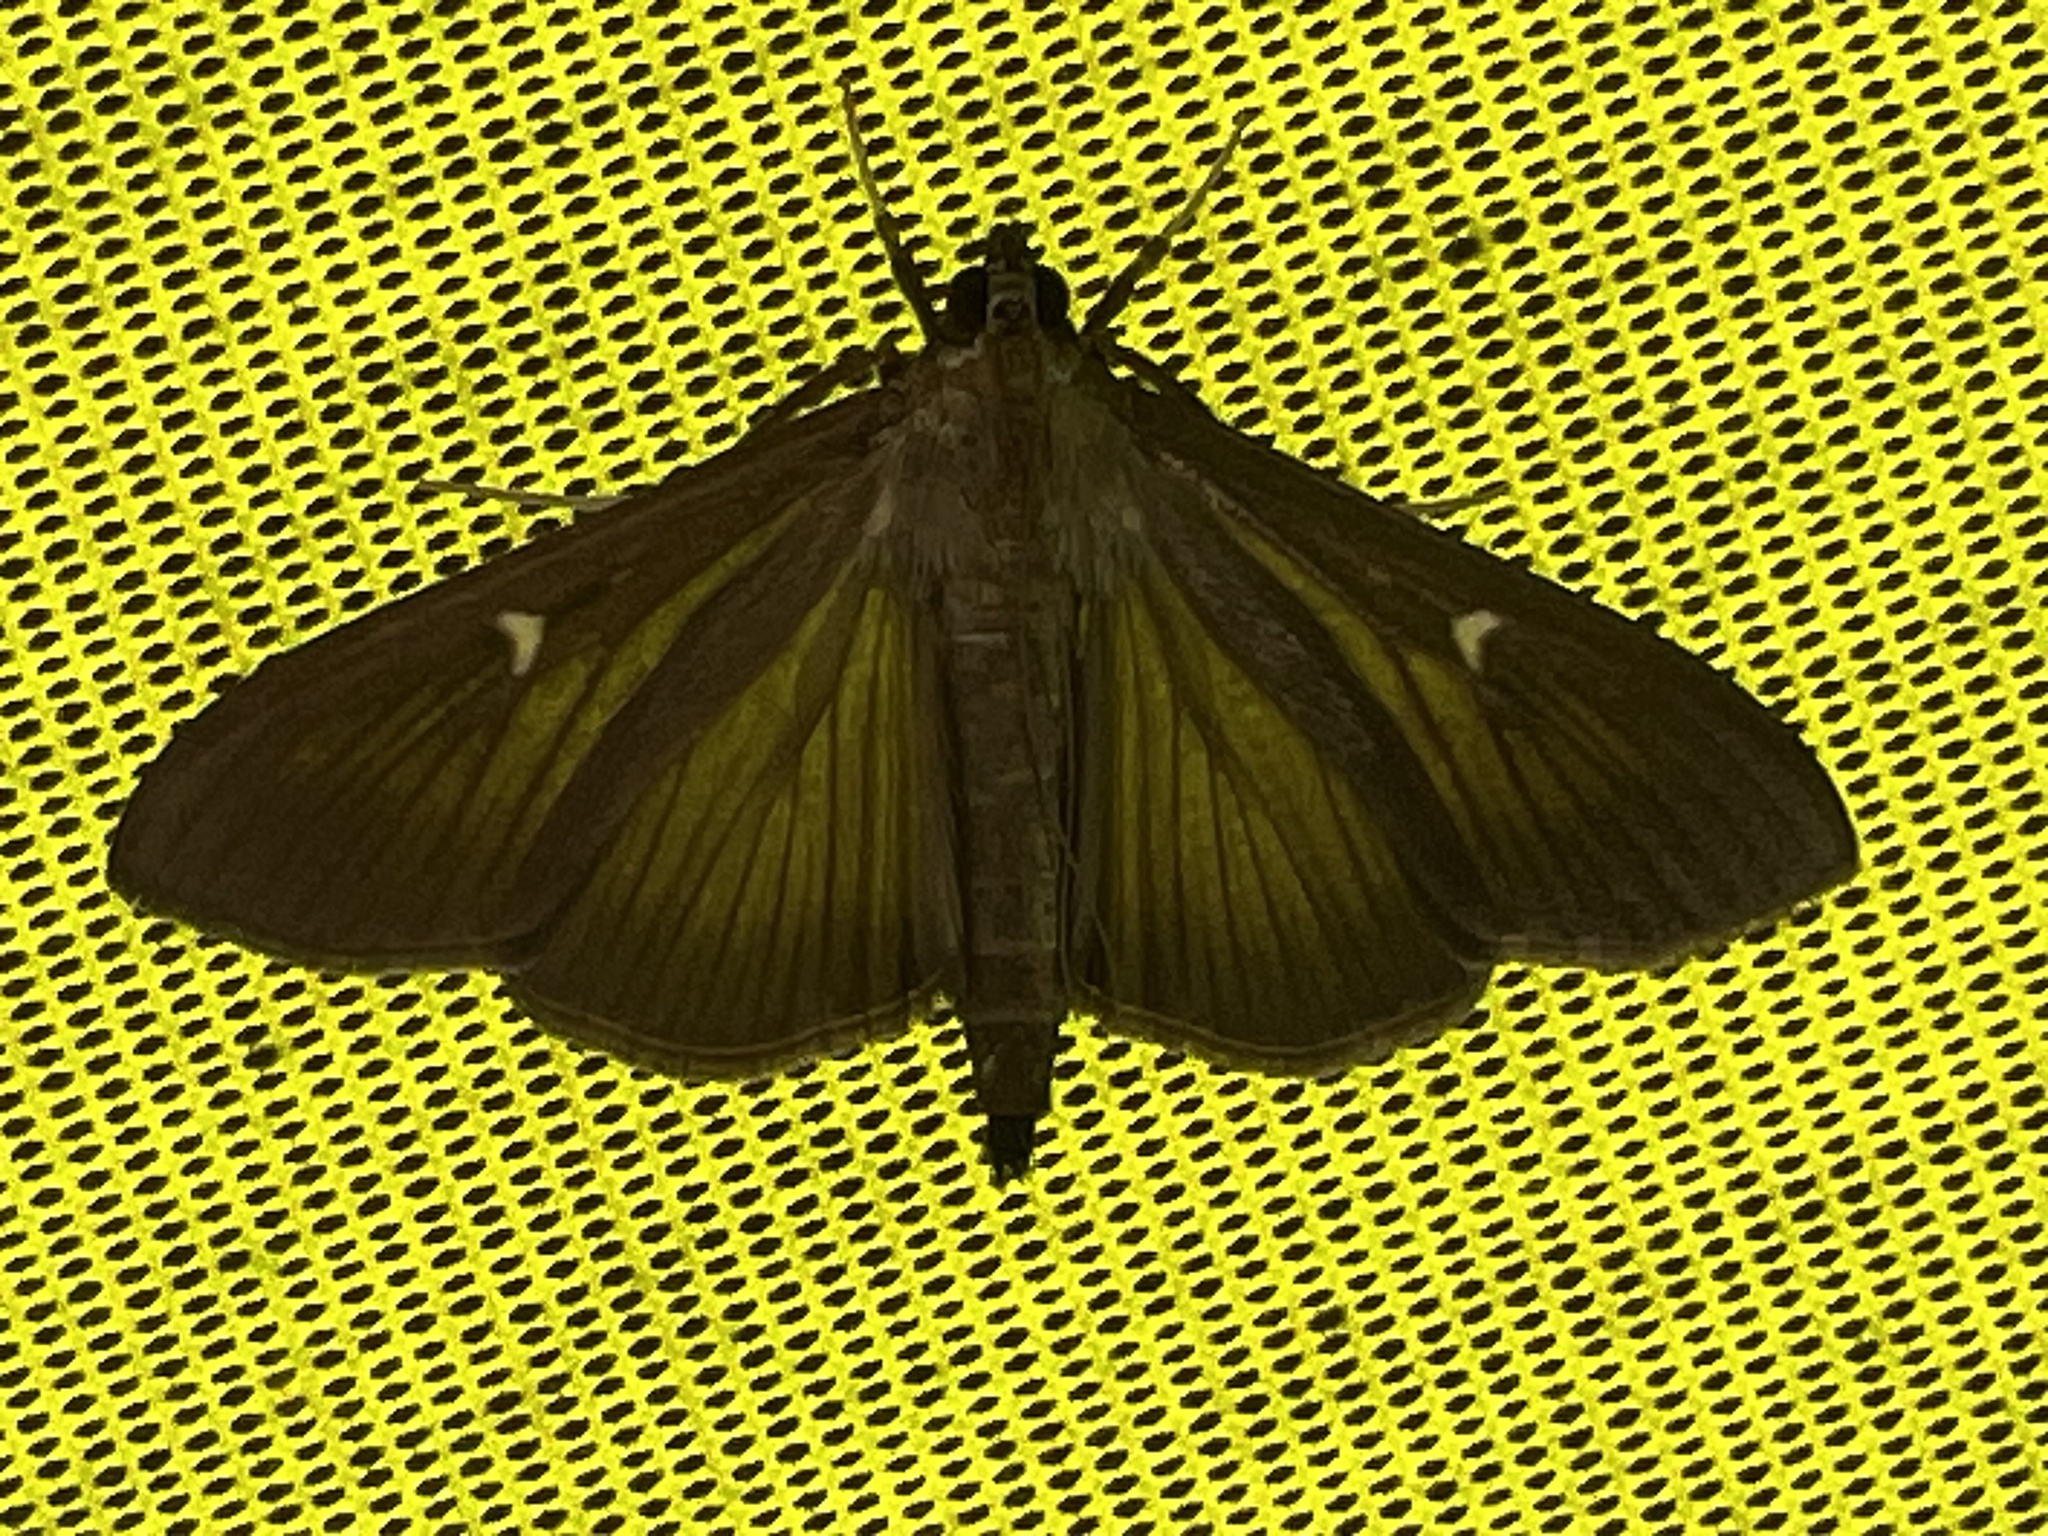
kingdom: Animalia
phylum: Arthropoda
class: Insecta
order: Lepidoptera
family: Crambidae
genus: Cydalima
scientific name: Cydalima perspectalis
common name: Box tree moth
